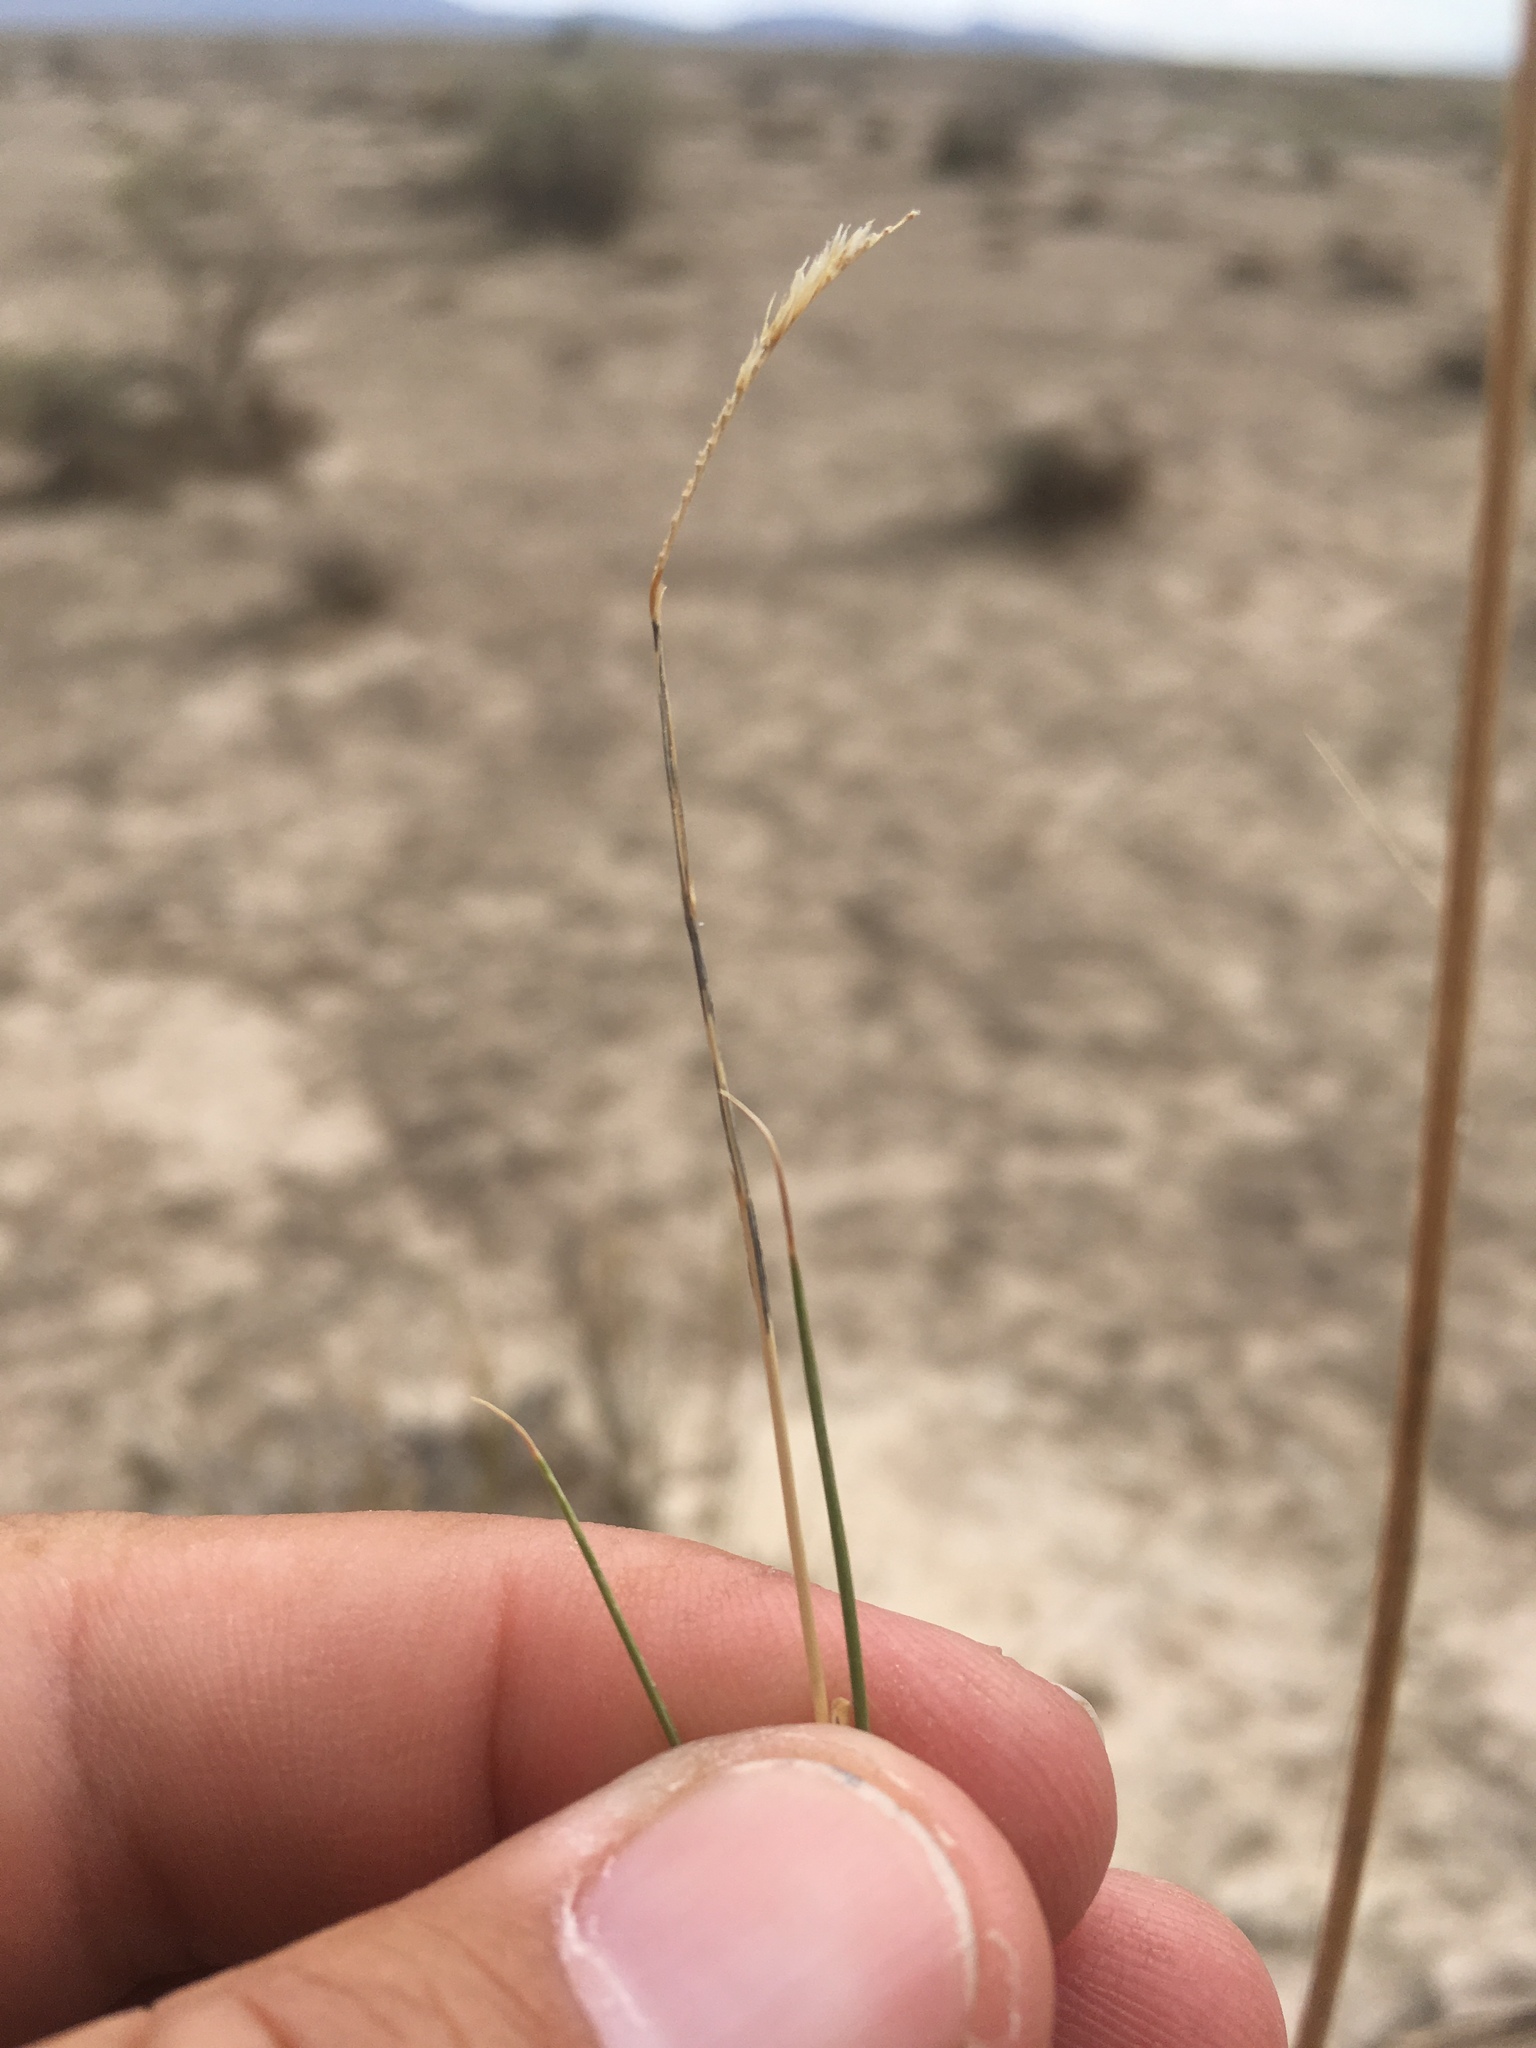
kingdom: Plantae
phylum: Tracheophyta
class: Liliopsida
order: Poales
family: Poaceae
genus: Bouteloua
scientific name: Bouteloua breviseta
